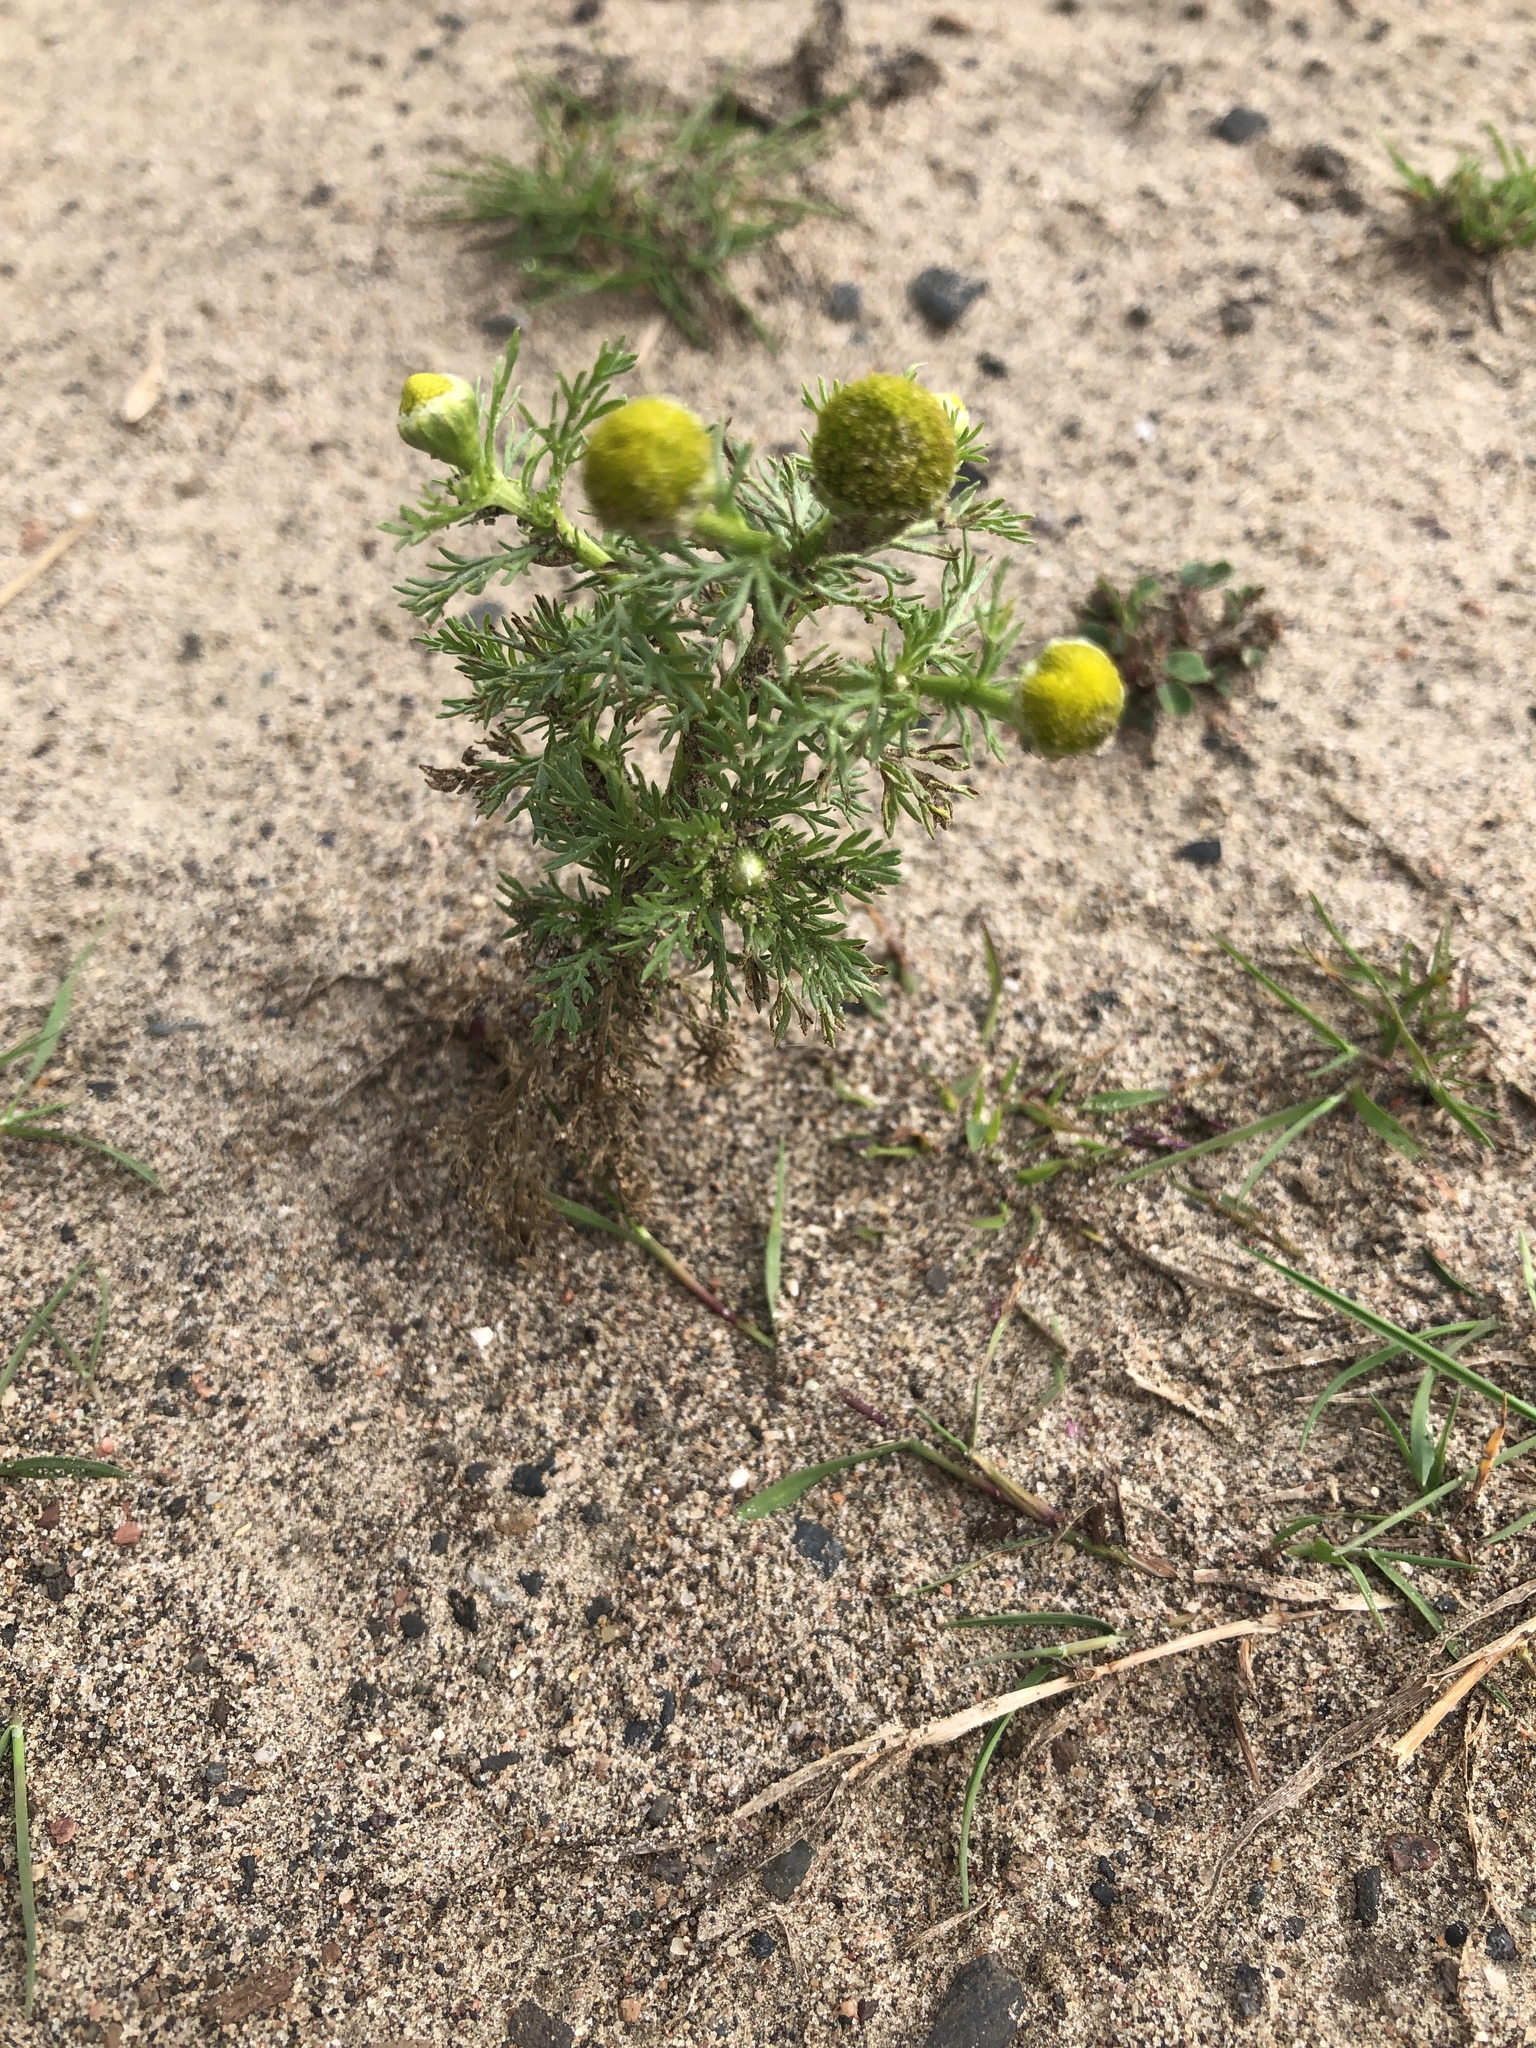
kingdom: Plantae
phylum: Tracheophyta
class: Magnoliopsida
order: Asterales
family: Asteraceae
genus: Matricaria
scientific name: Matricaria discoidea
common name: Disc mayweed
